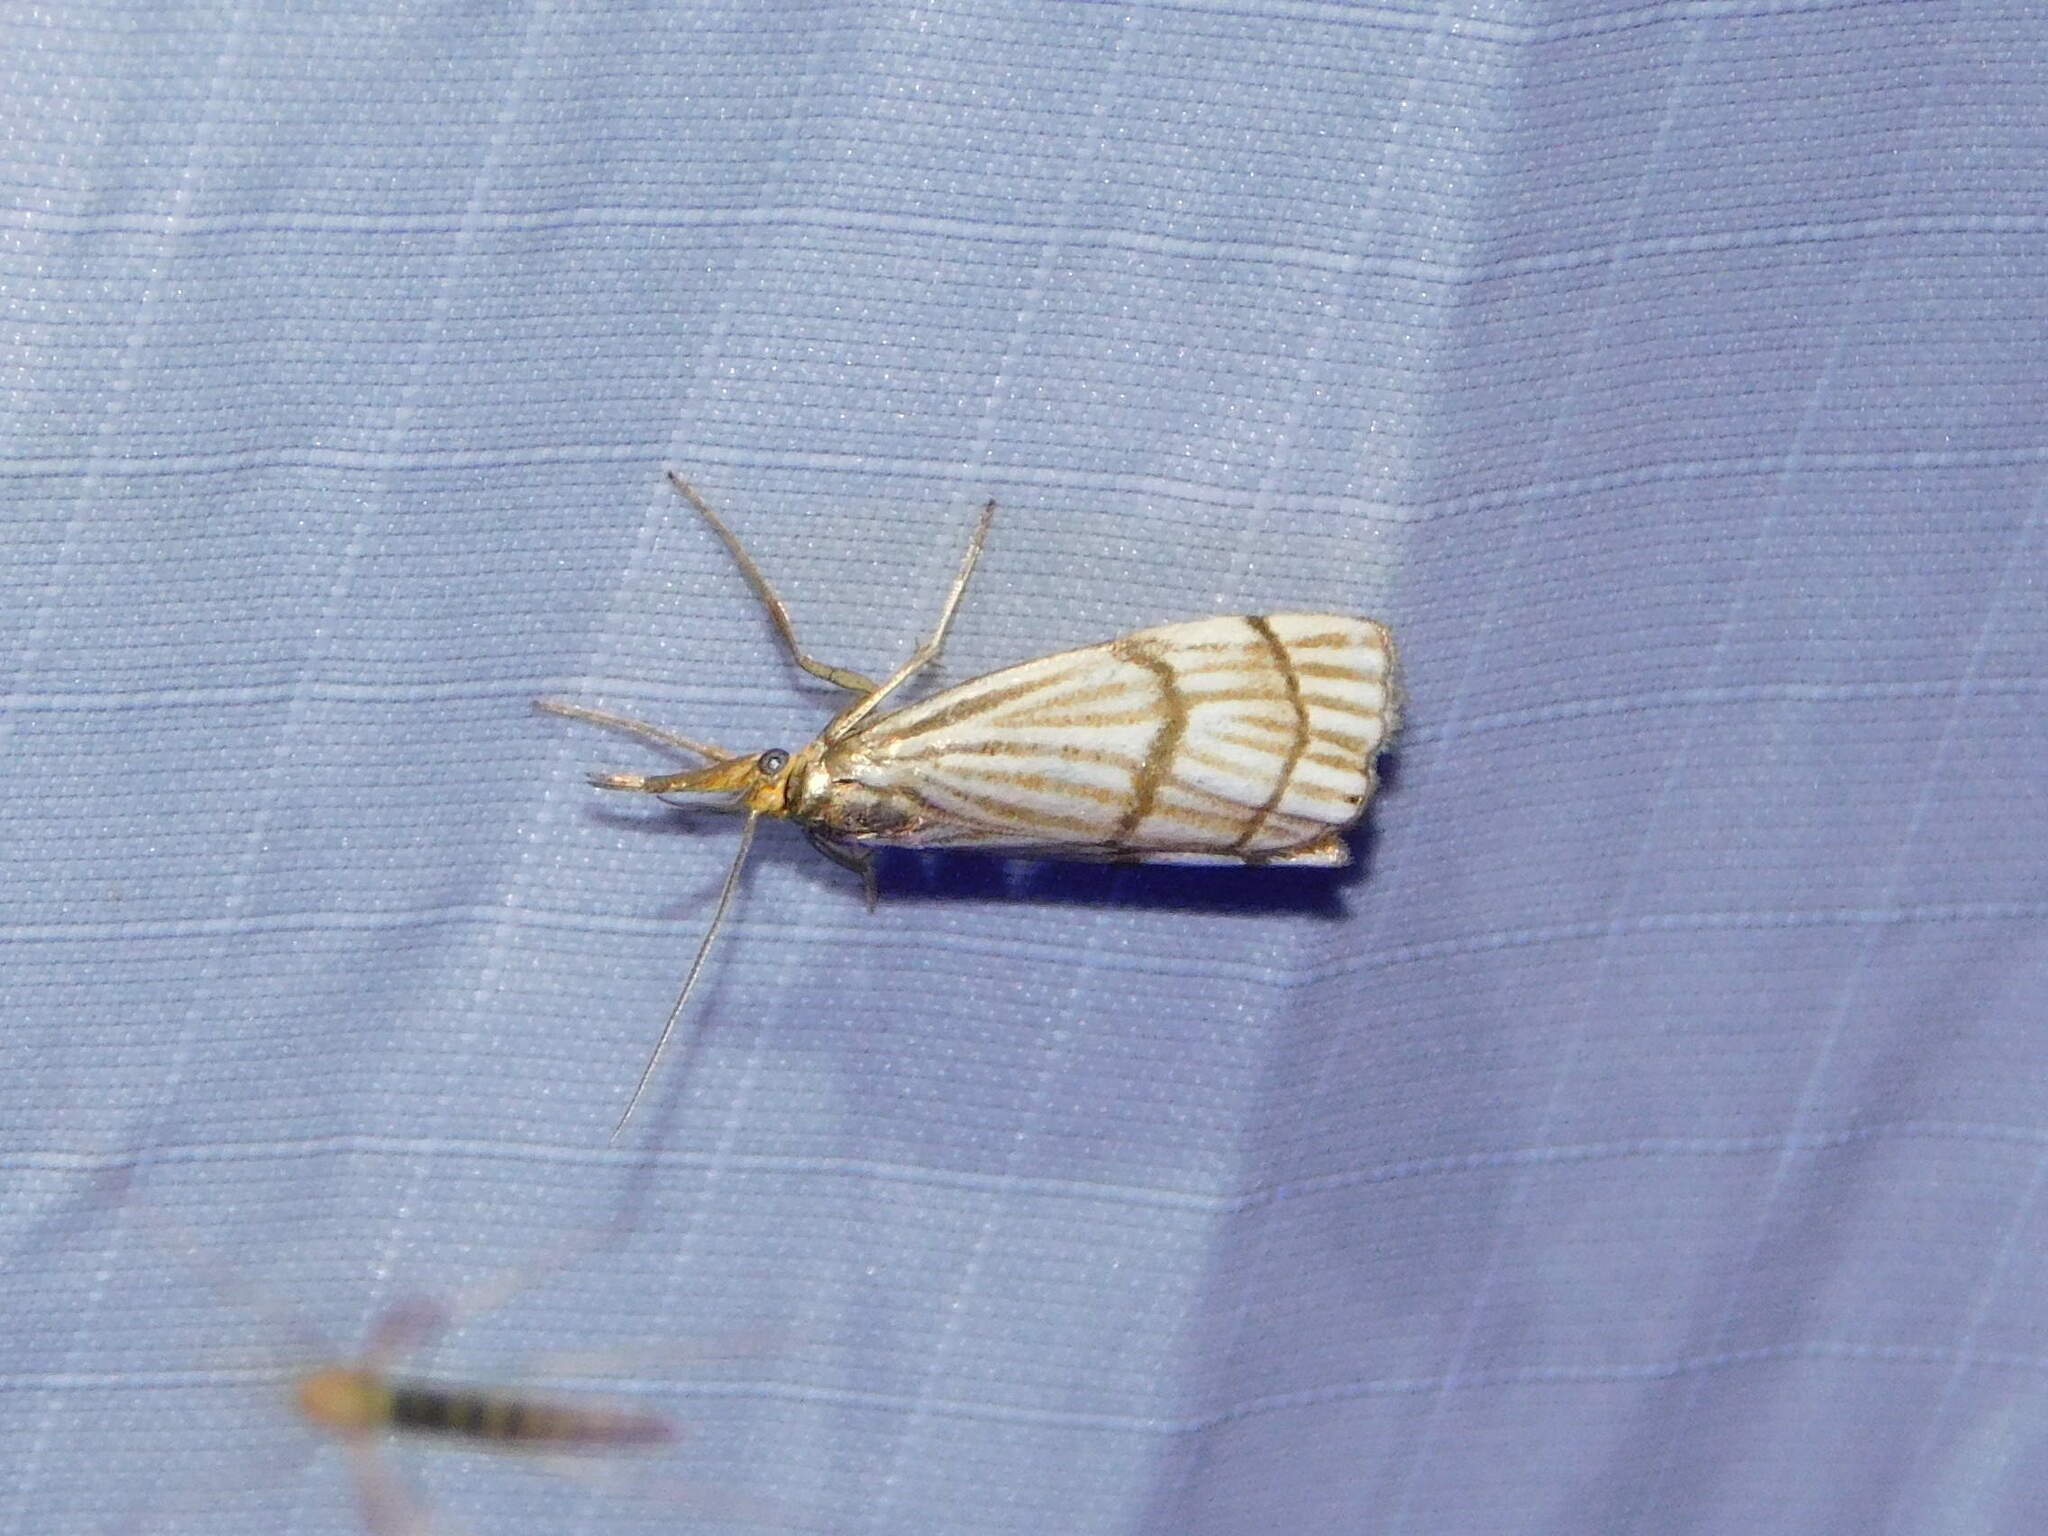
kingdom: Animalia
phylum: Arthropoda
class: Insecta
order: Lepidoptera
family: Crambidae
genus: Chrysocrambus
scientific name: Chrysocrambus linetella
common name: Orange-bar grass-veneer
